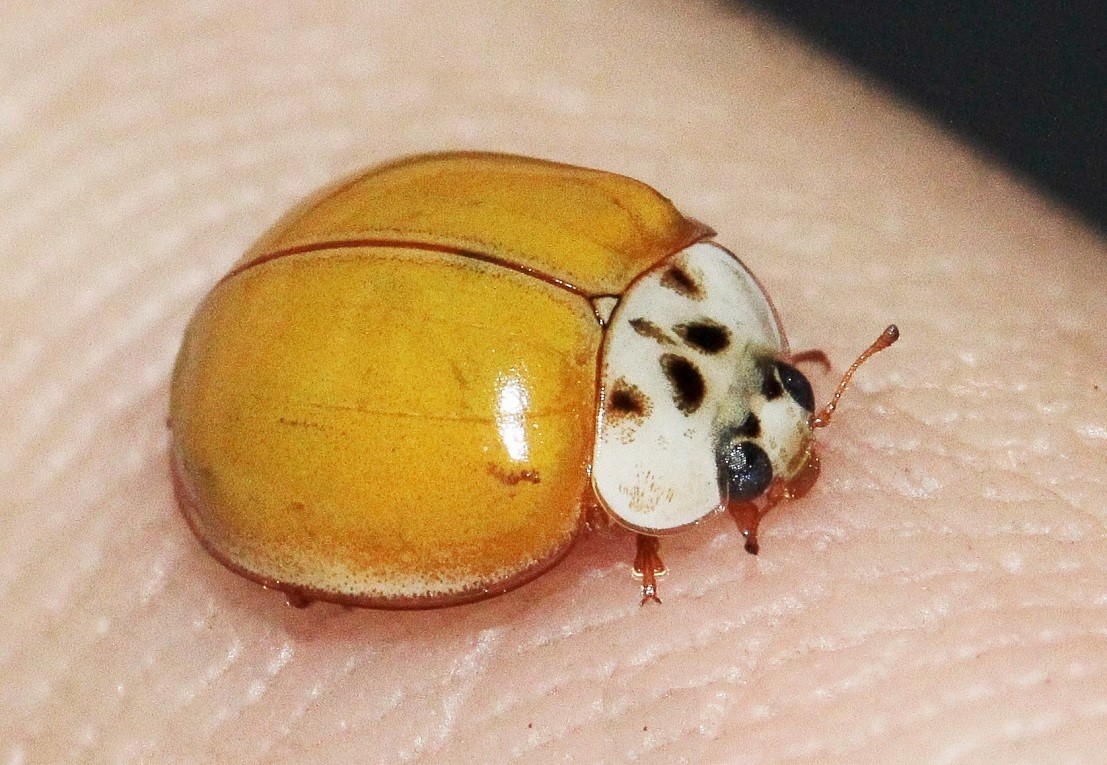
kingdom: Animalia
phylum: Arthropoda
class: Insecta
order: Coleoptera
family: Coccinellidae
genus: Harmonia
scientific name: Harmonia axyridis
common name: Harlequin ladybird
